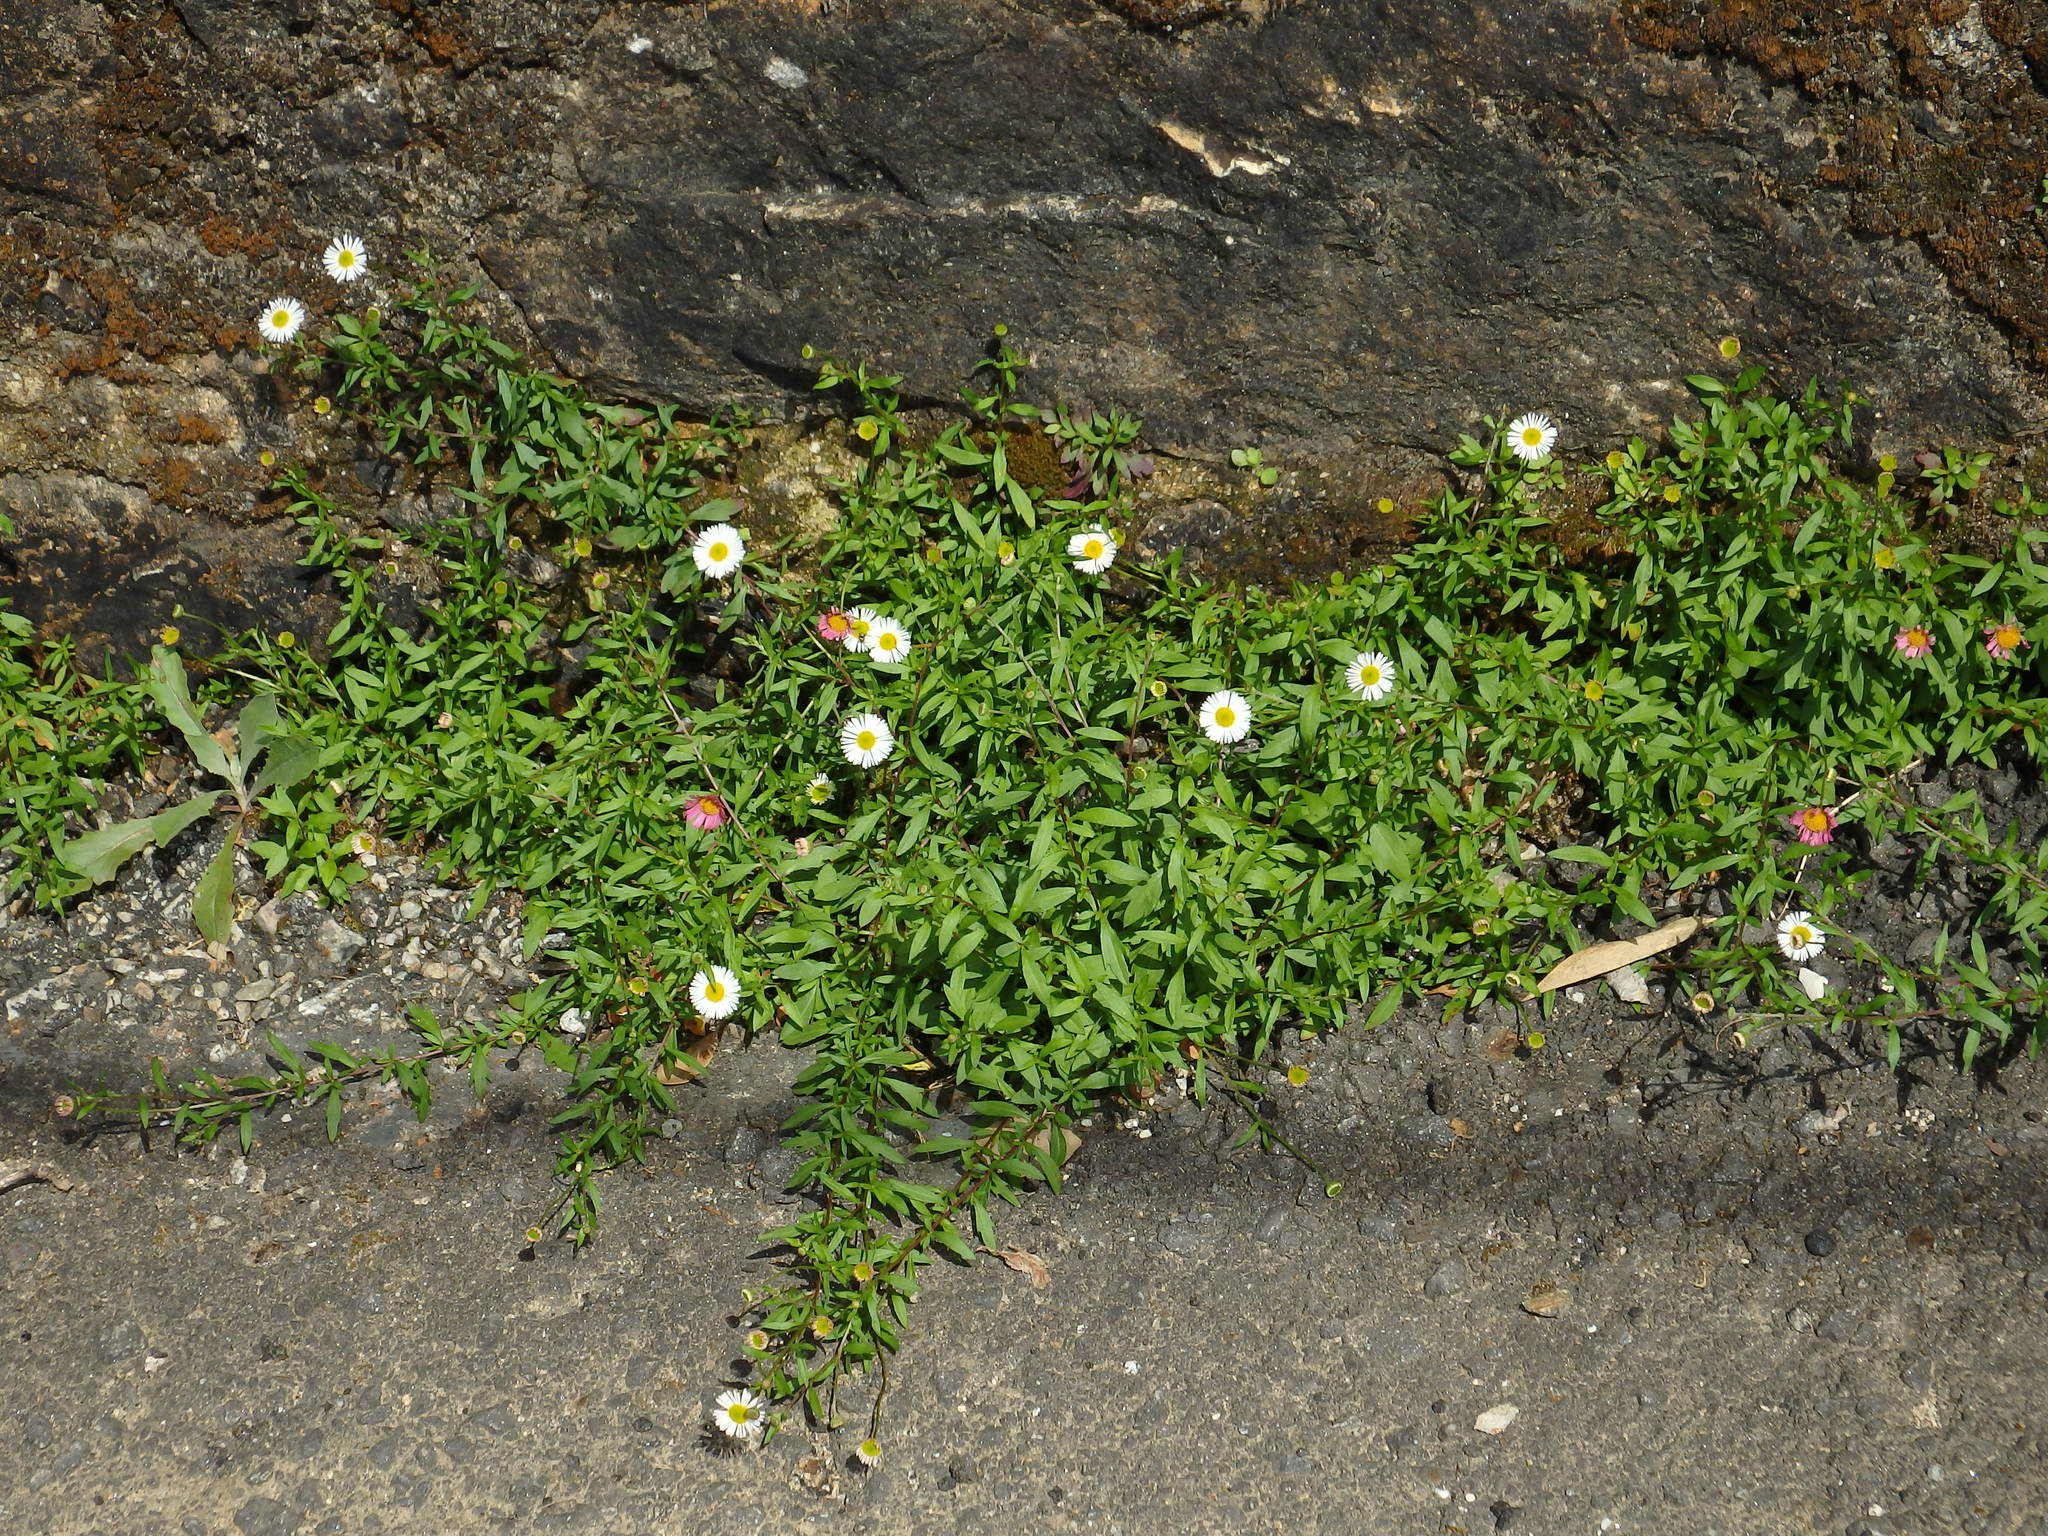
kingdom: Plantae
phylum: Tracheophyta
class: Magnoliopsida
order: Asterales
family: Asteraceae
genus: Erigeron
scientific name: Erigeron karvinskianus
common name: Mexican fleabane
